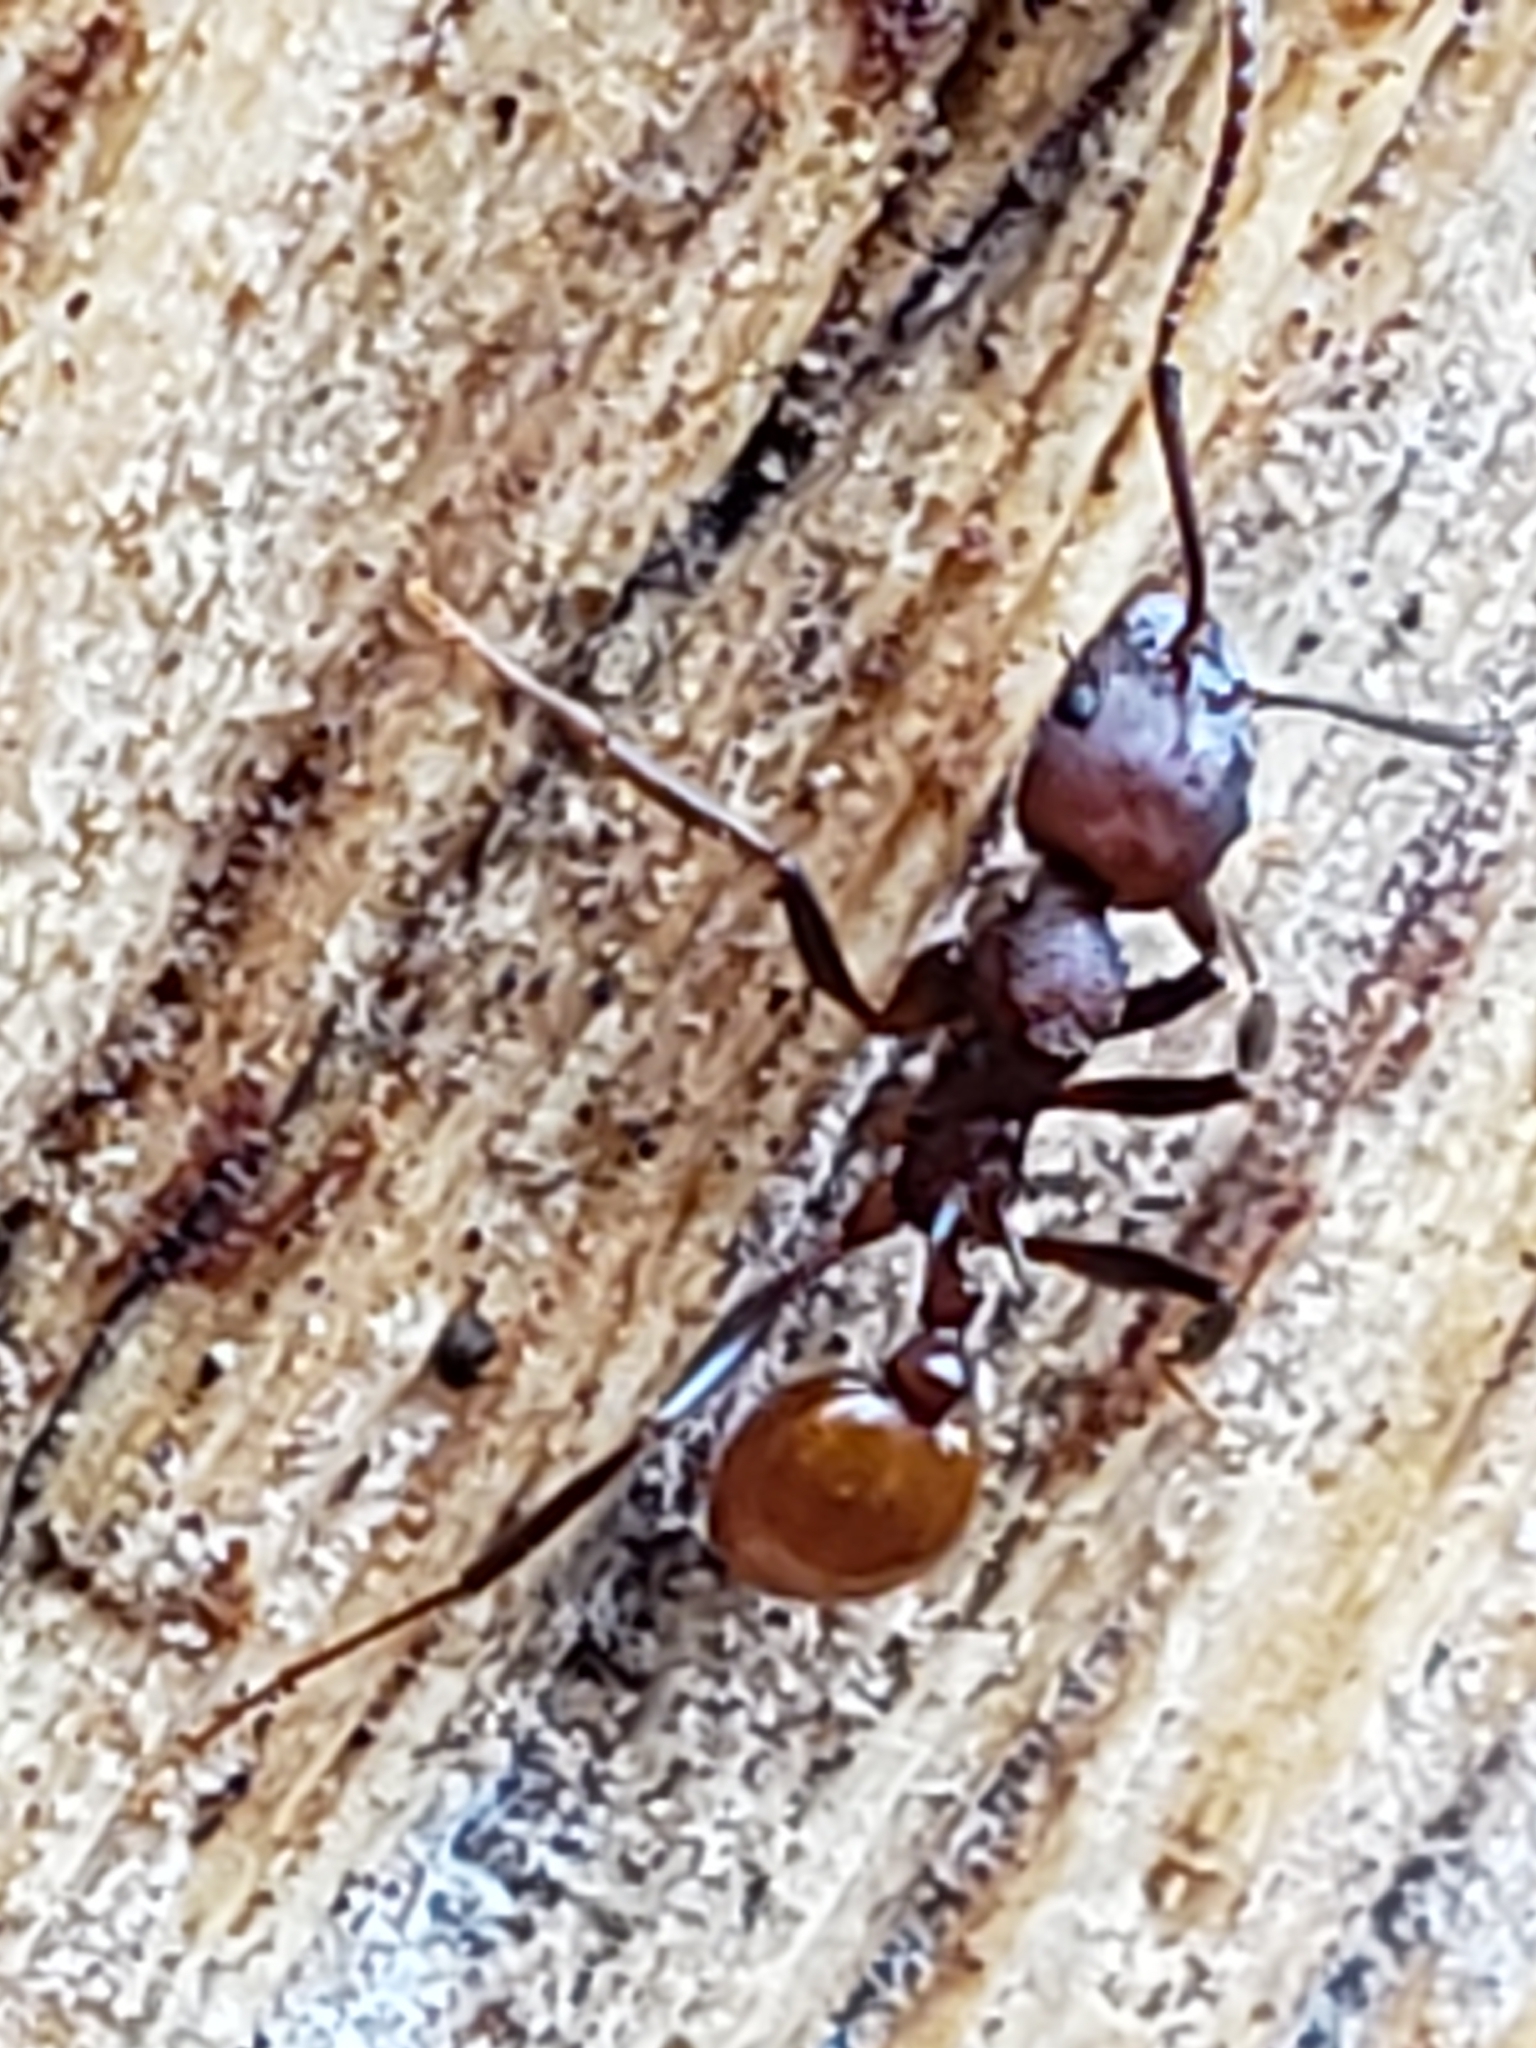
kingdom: Animalia
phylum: Arthropoda
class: Insecta
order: Hymenoptera
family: Formicidae
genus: Aphaenogaster
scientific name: Aphaenogaster tennesseensis
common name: Tennessee thread-waisted ant
